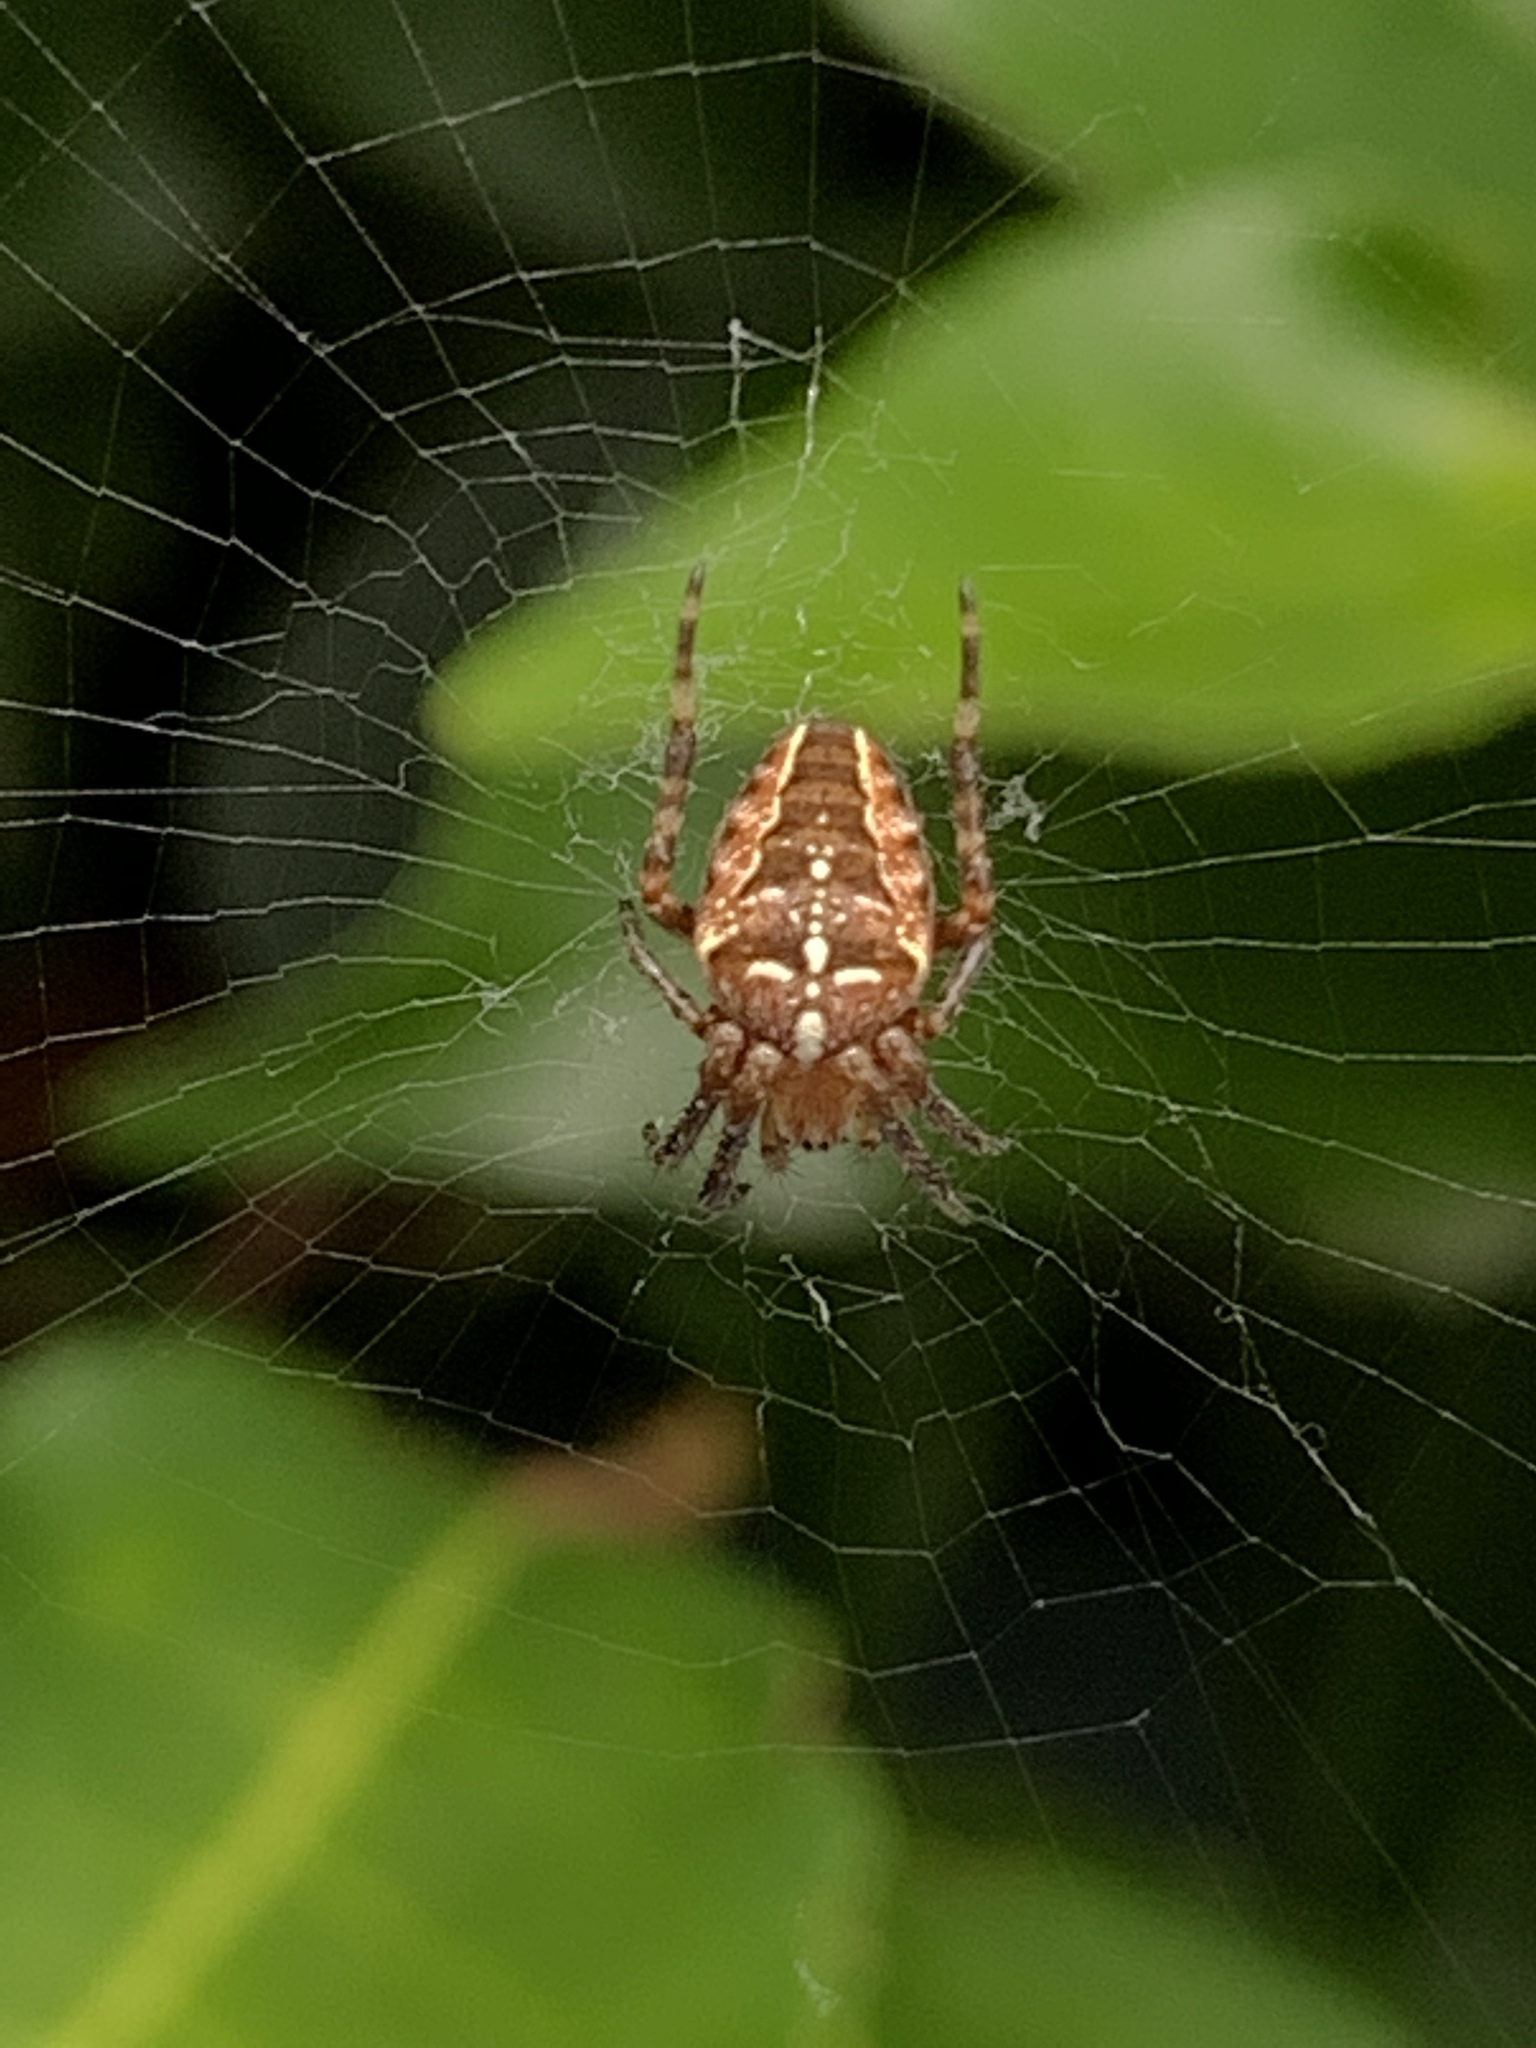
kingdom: Animalia
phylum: Arthropoda
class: Arachnida
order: Araneae
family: Araneidae
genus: Araneus
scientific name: Araneus diadematus
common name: Cross orbweaver
